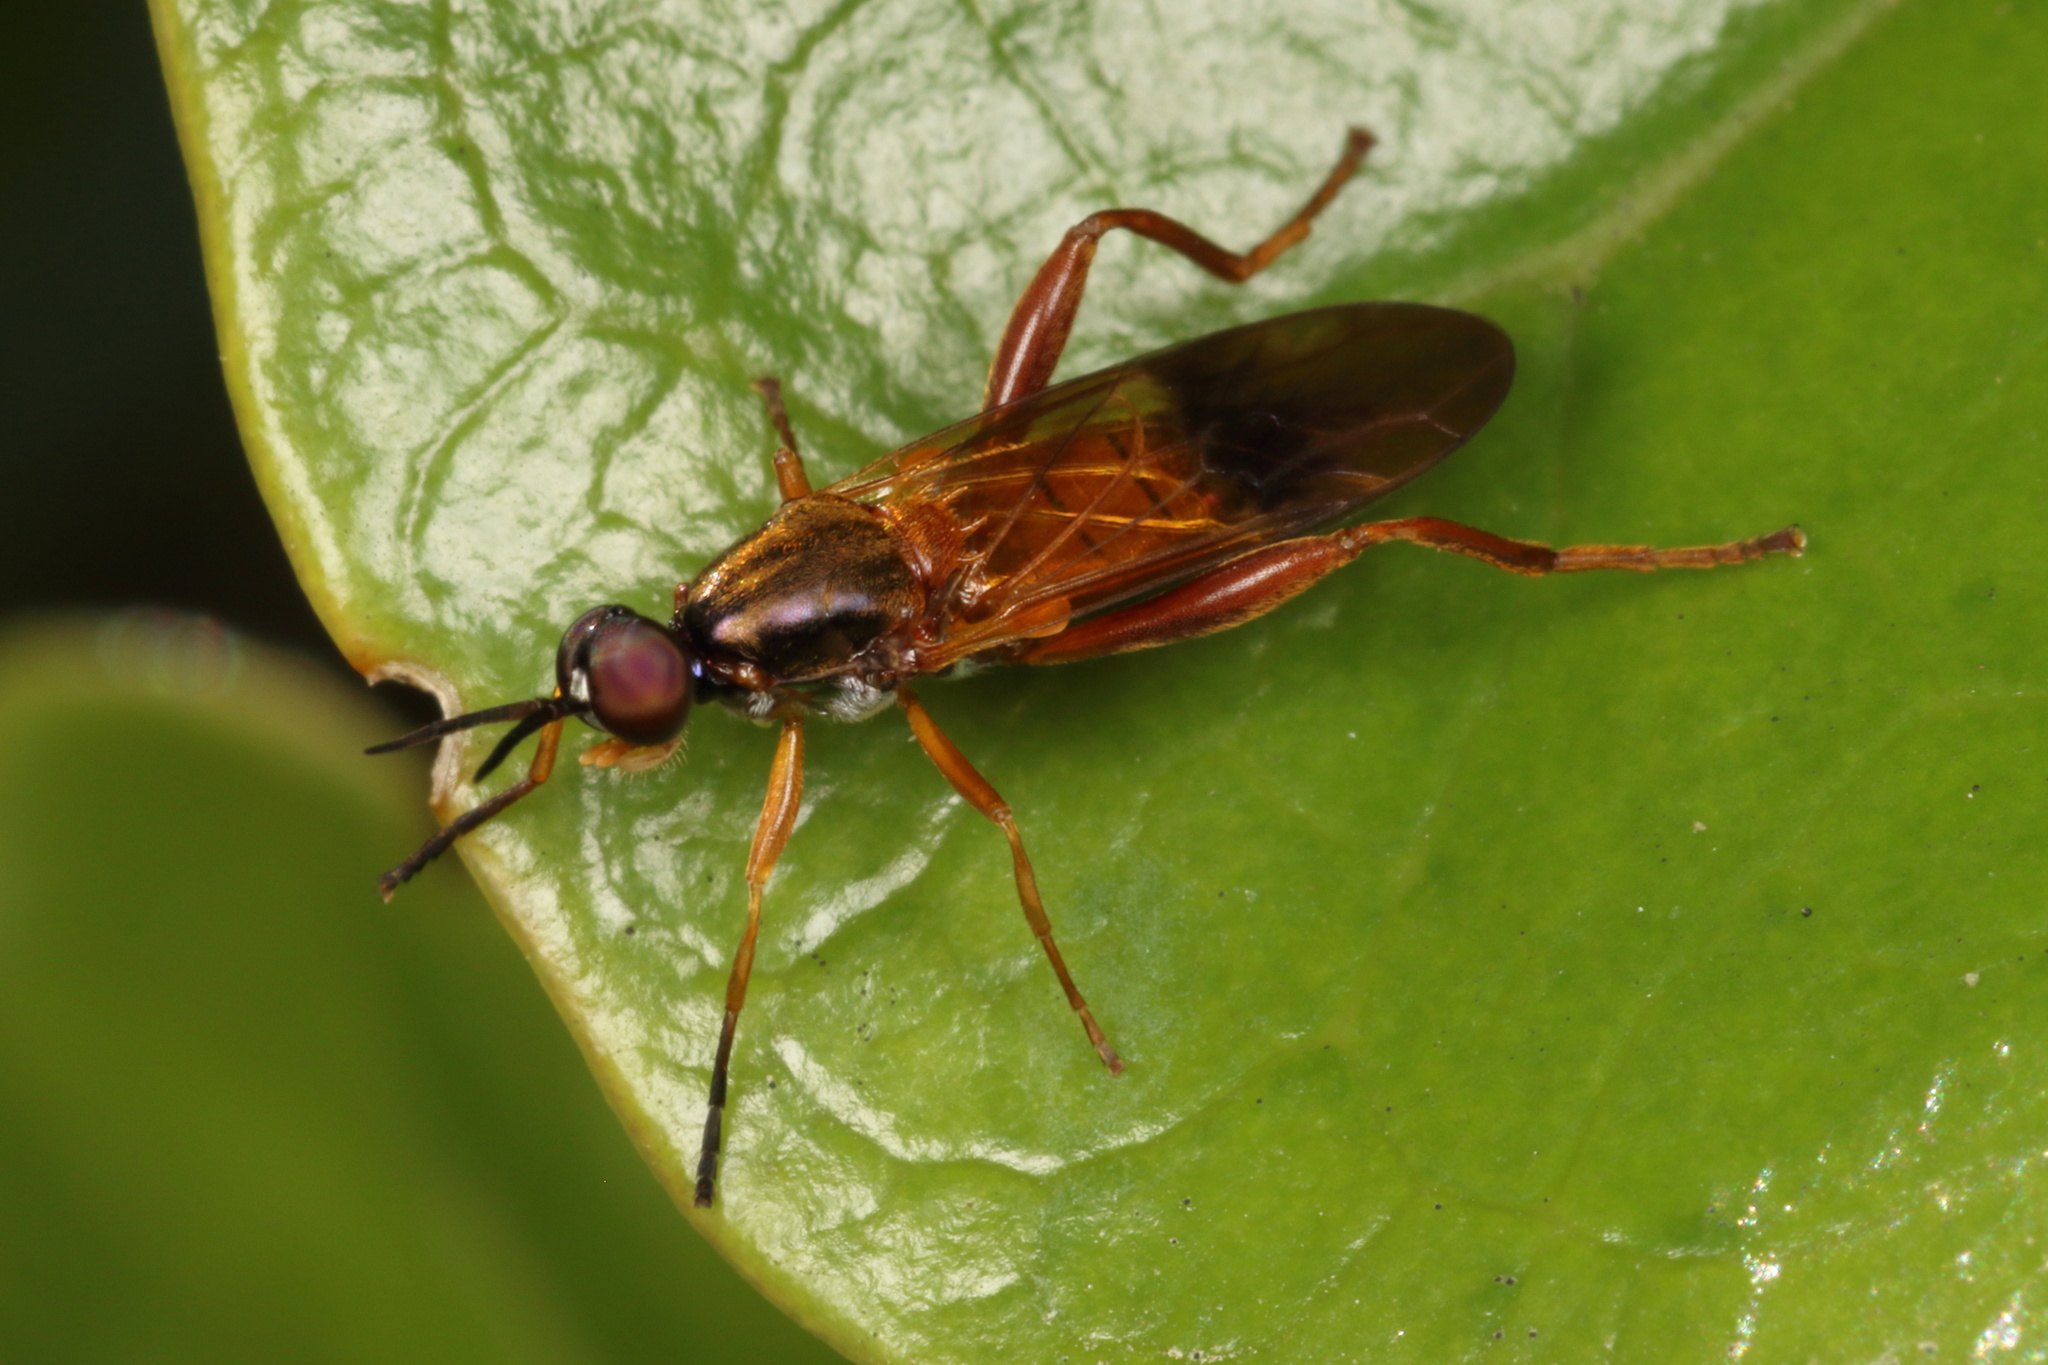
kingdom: Animalia
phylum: Arthropoda
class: Insecta
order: Diptera
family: Stratiomyidae
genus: Benhamyia
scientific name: Benhamyia apicalis
